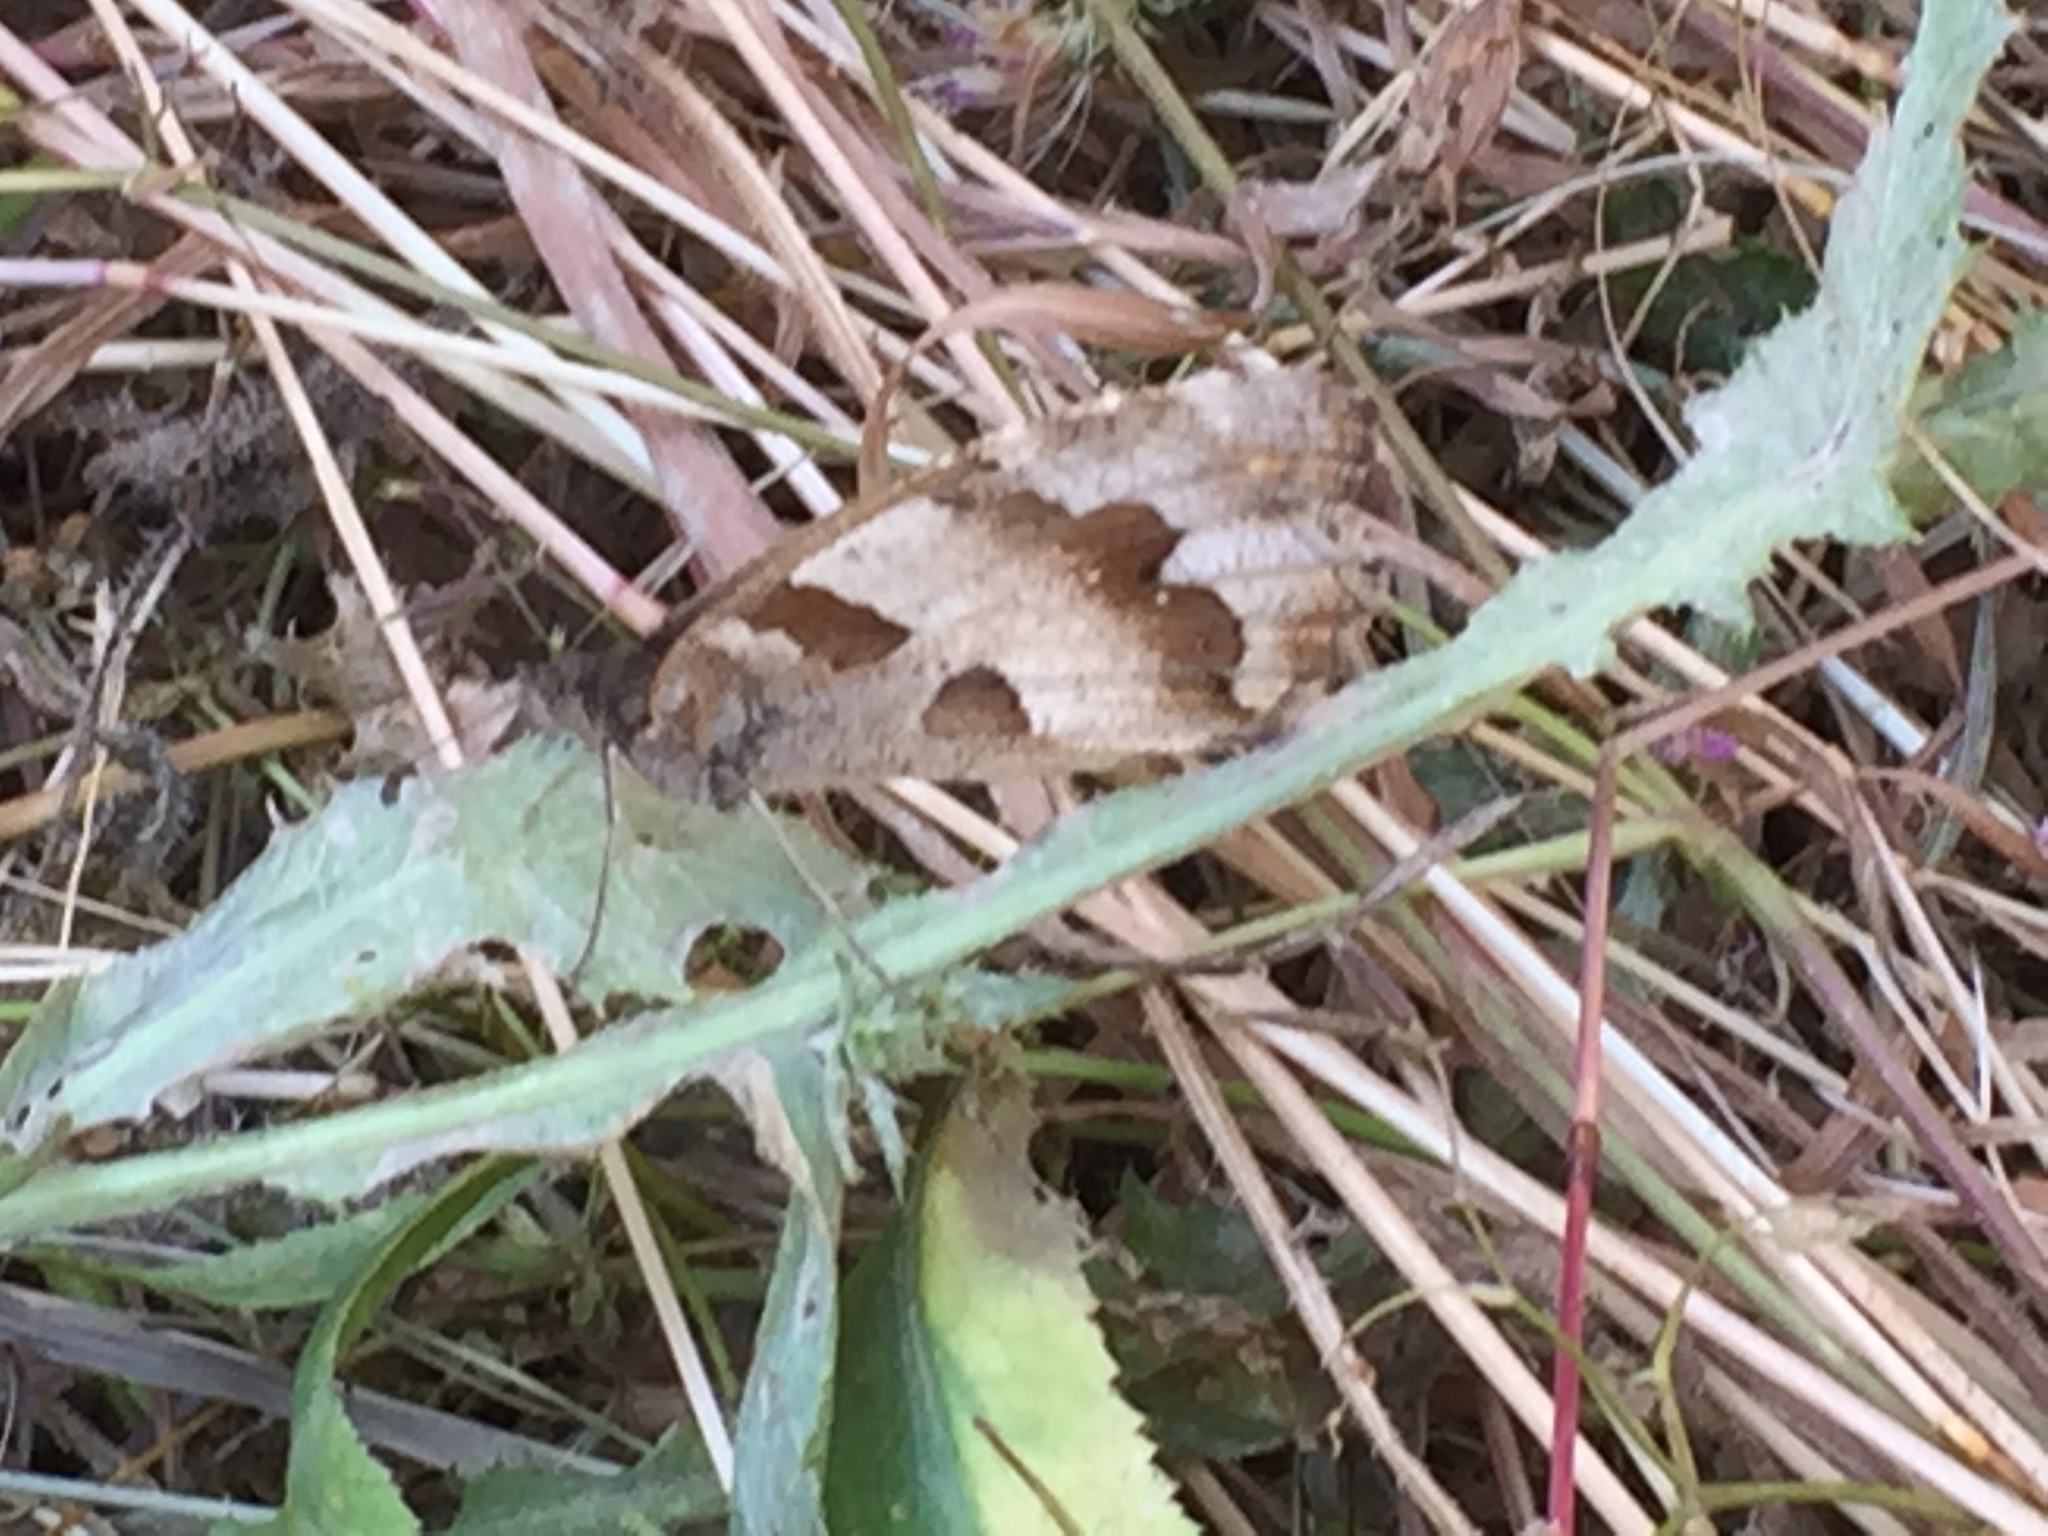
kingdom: Animalia
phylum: Arthropoda
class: Insecta
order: Lepidoptera
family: Nymphalidae
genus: Satyrus
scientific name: Satyrus briseis
